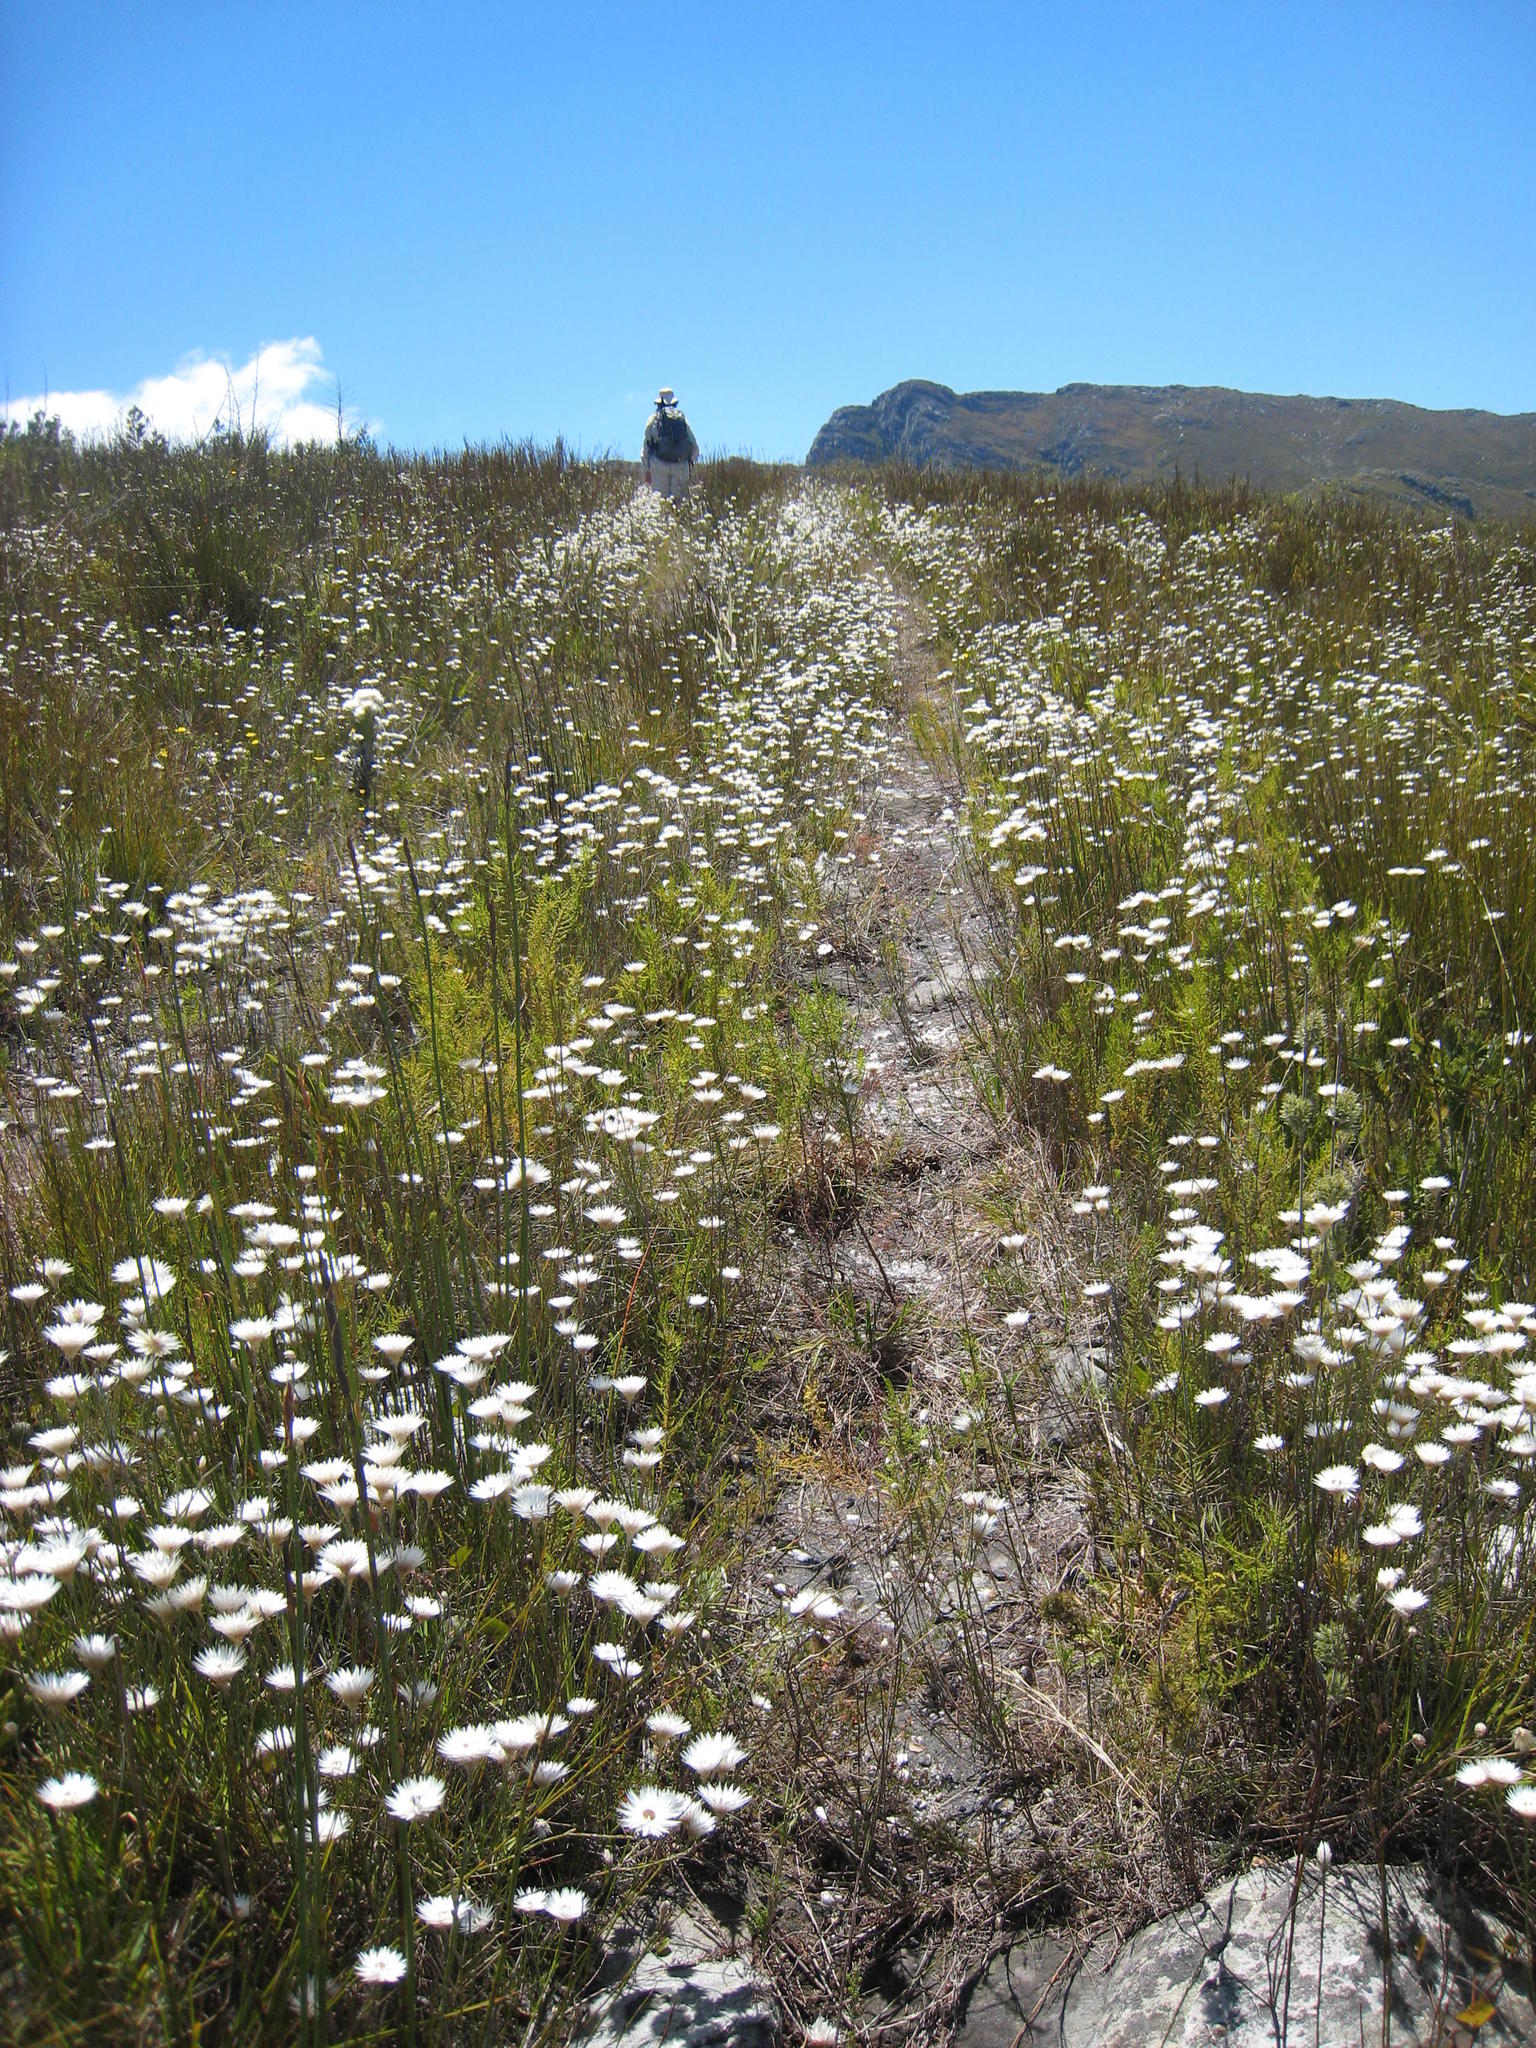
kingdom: Plantae
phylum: Tracheophyta
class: Magnoliopsida
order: Asterales
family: Asteraceae
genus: Edmondia
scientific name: Edmondia sesamoides
